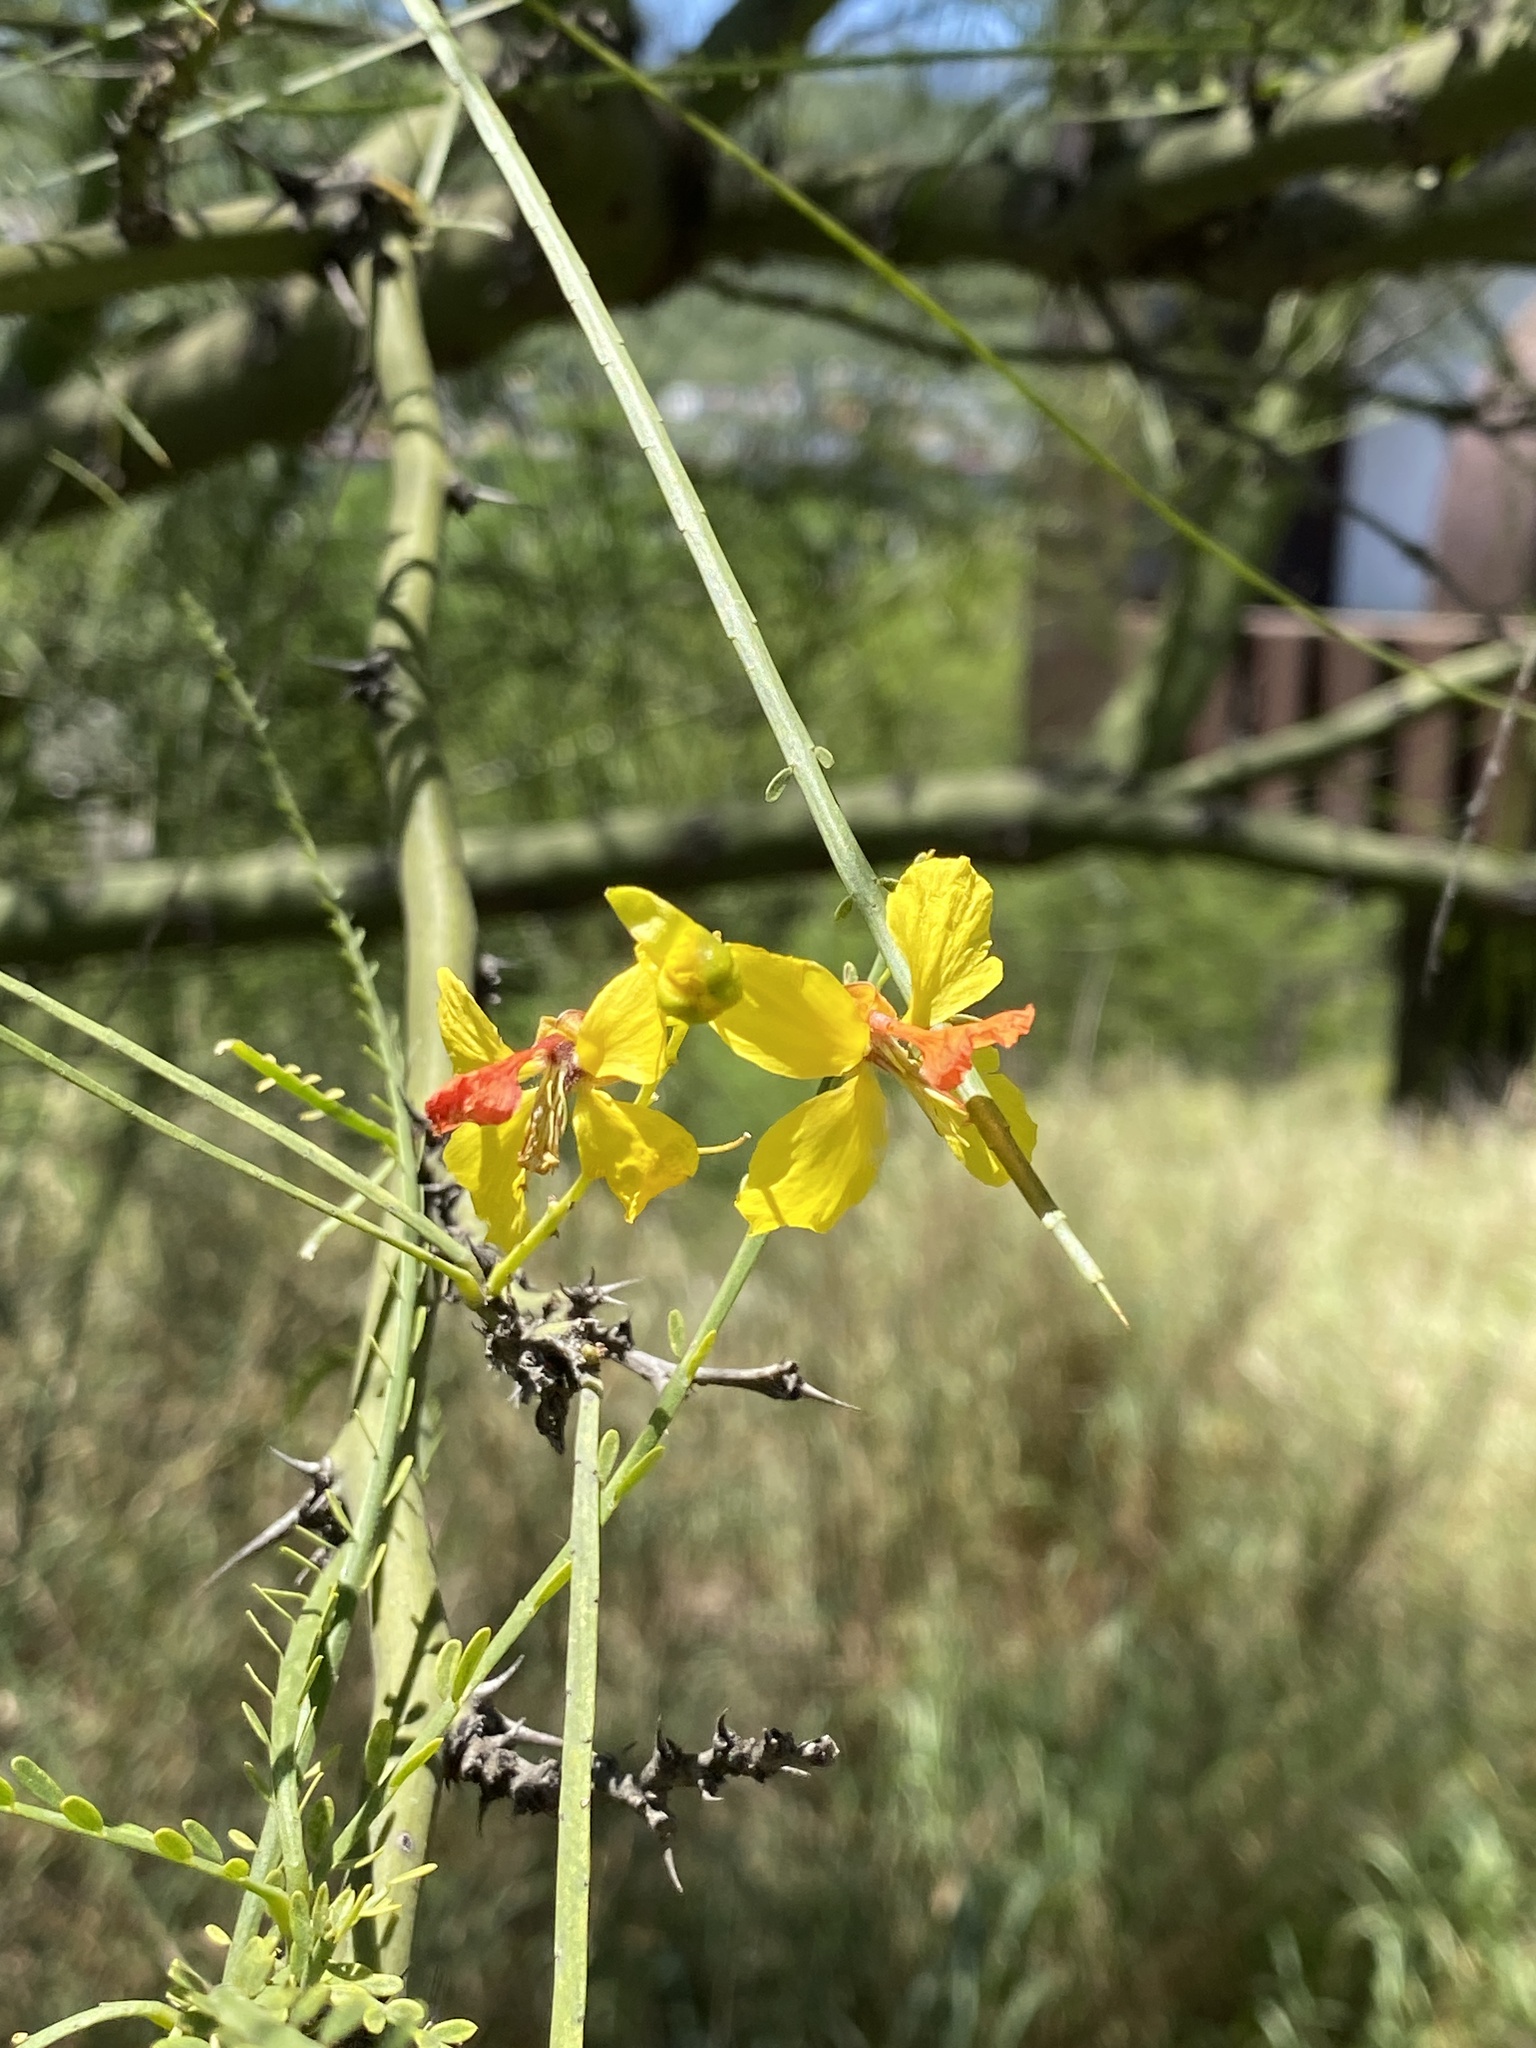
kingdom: Plantae
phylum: Tracheophyta
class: Magnoliopsida
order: Fabales
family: Fabaceae
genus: Parkinsonia
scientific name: Parkinsonia aculeata
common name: Jerusalem thorn
